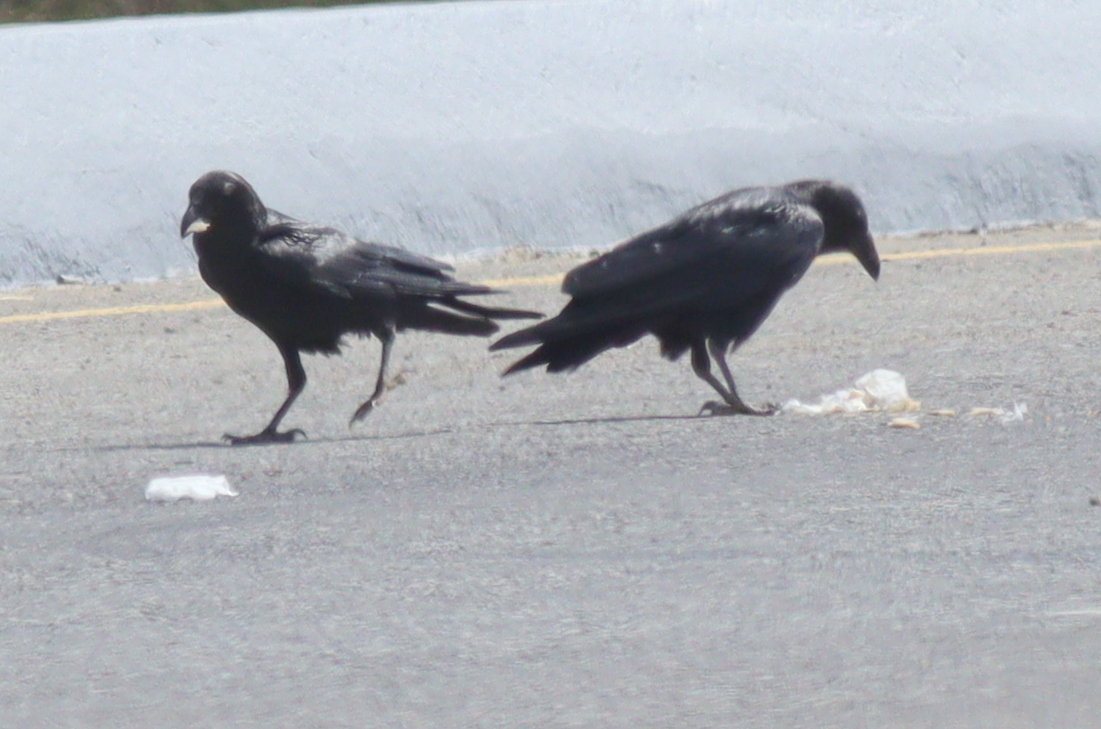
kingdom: Animalia
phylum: Chordata
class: Aves
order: Passeriformes
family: Corvidae
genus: Corvus
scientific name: Corvus ruficollis
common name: Brown-necked raven
